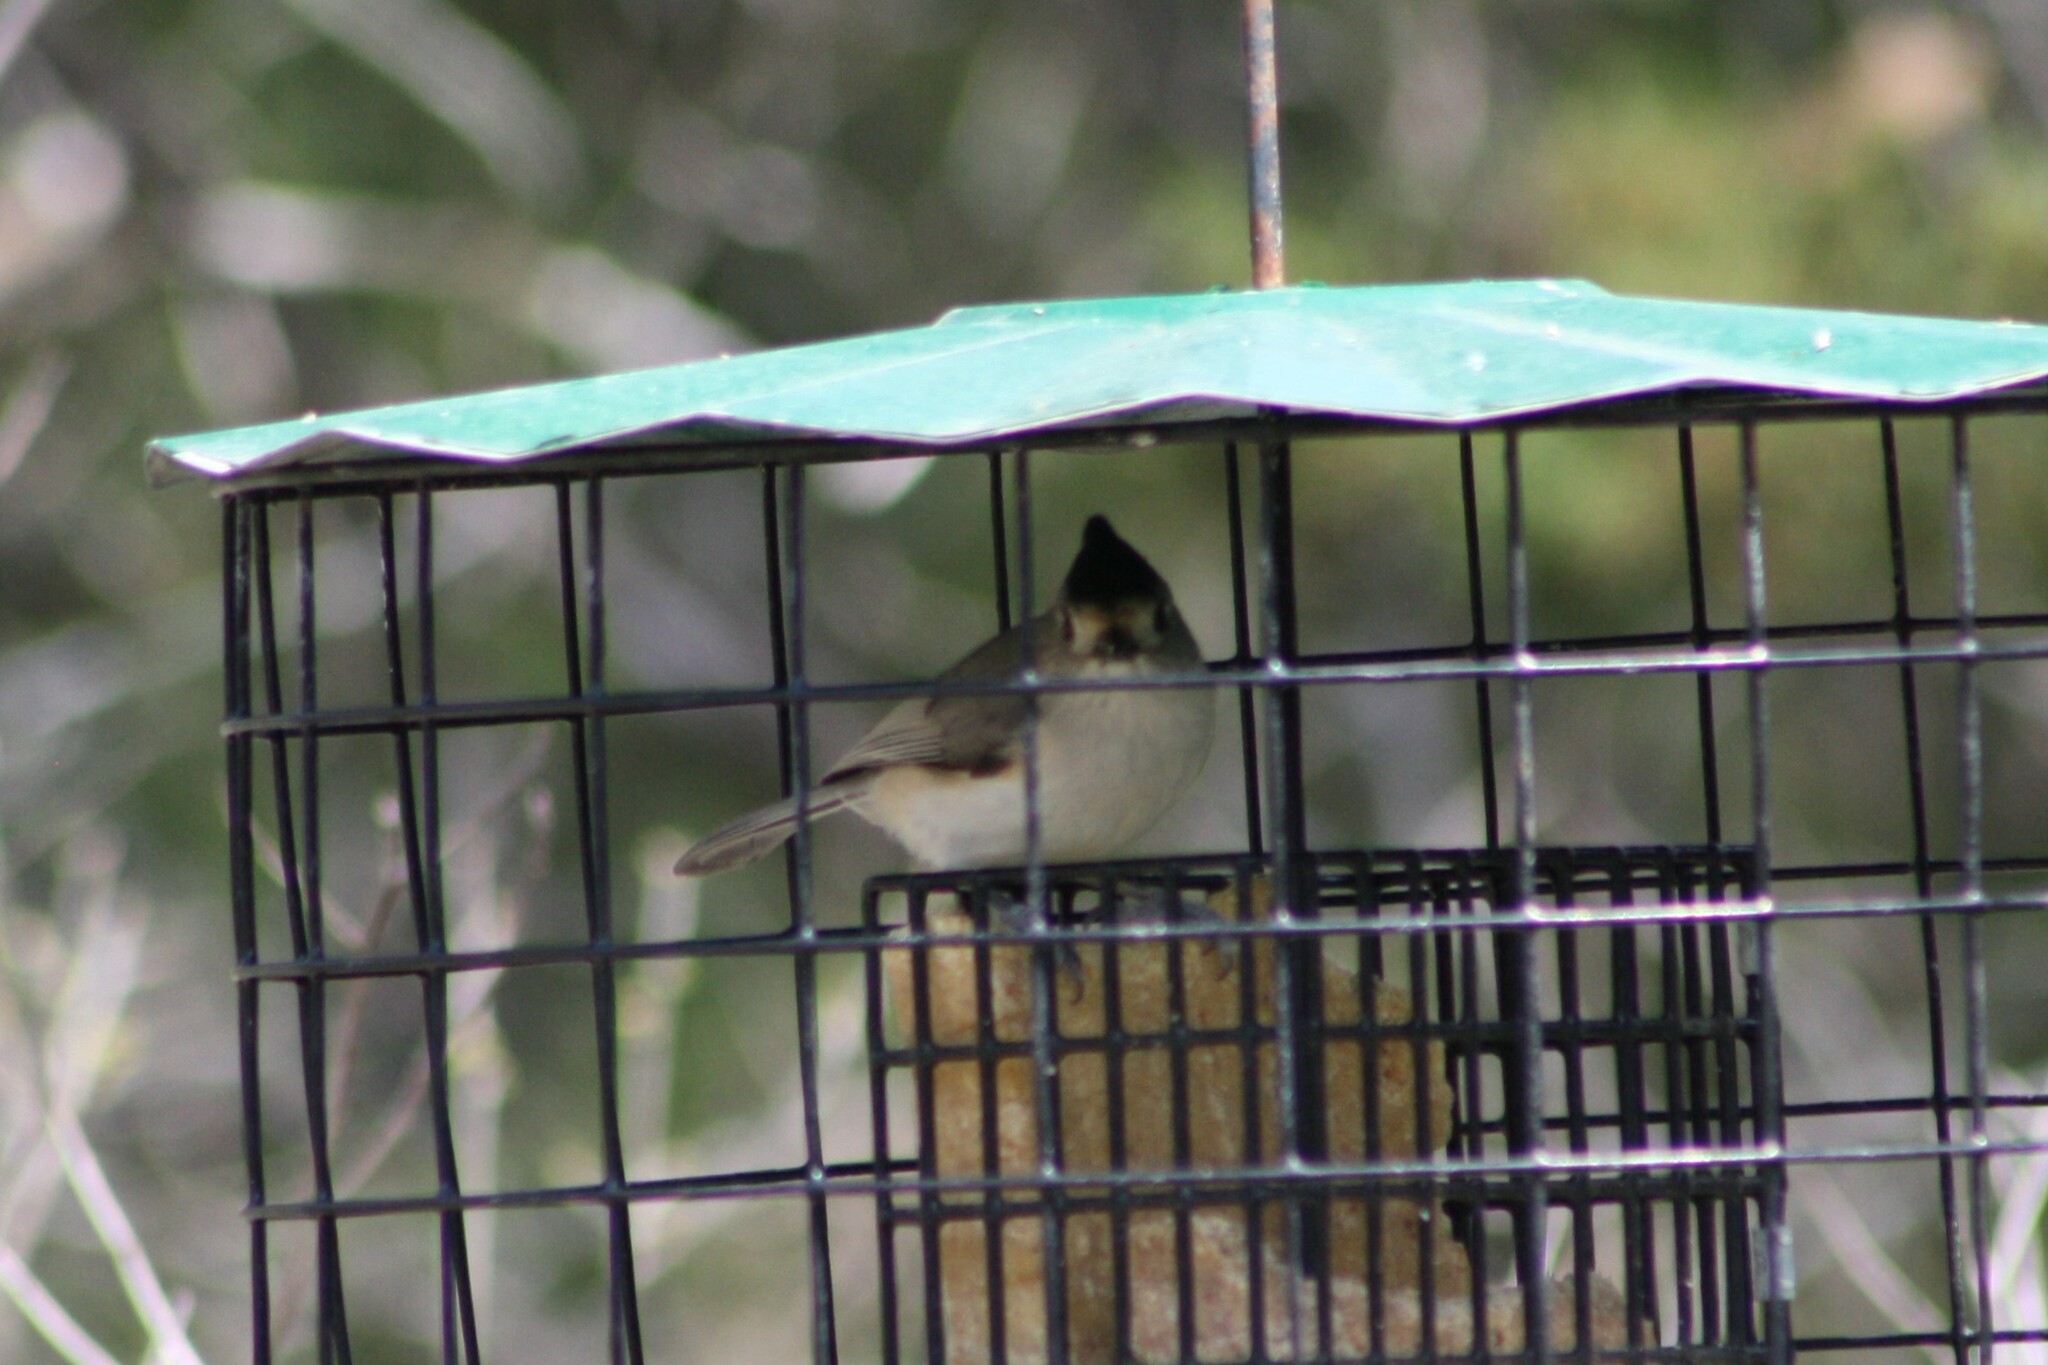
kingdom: Animalia
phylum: Chordata
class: Aves
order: Passeriformes
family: Paridae
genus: Baeolophus
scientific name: Baeolophus atricristatus
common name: Black-crested titmouse
